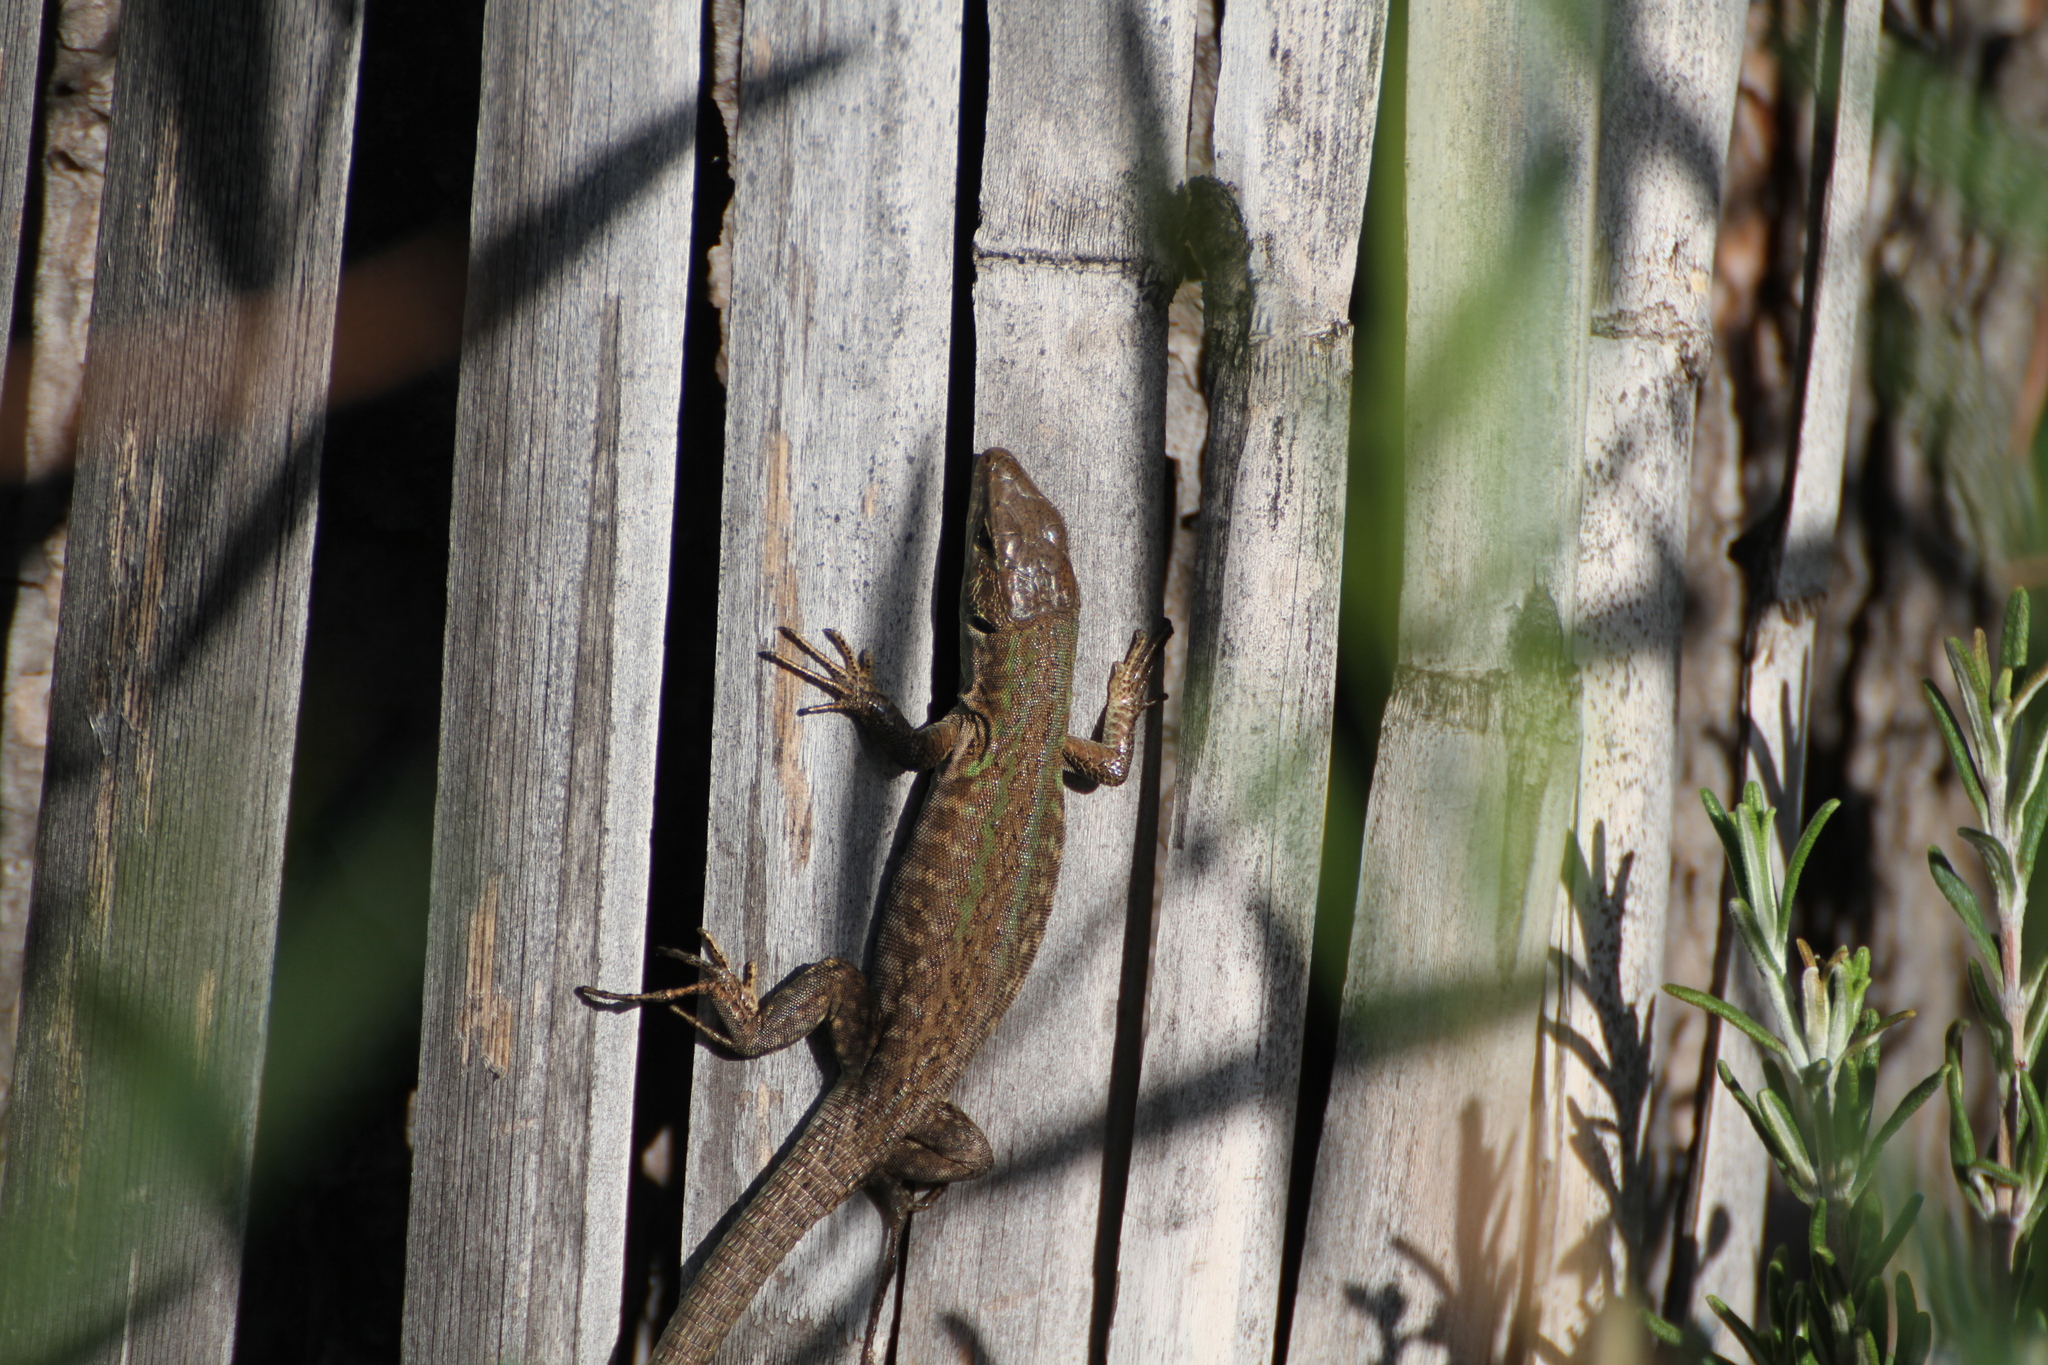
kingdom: Animalia
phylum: Chordata
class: Squamata
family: Lacertidae
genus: Podarcis
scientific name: Podarcis siculus
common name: Italian wall lizard
